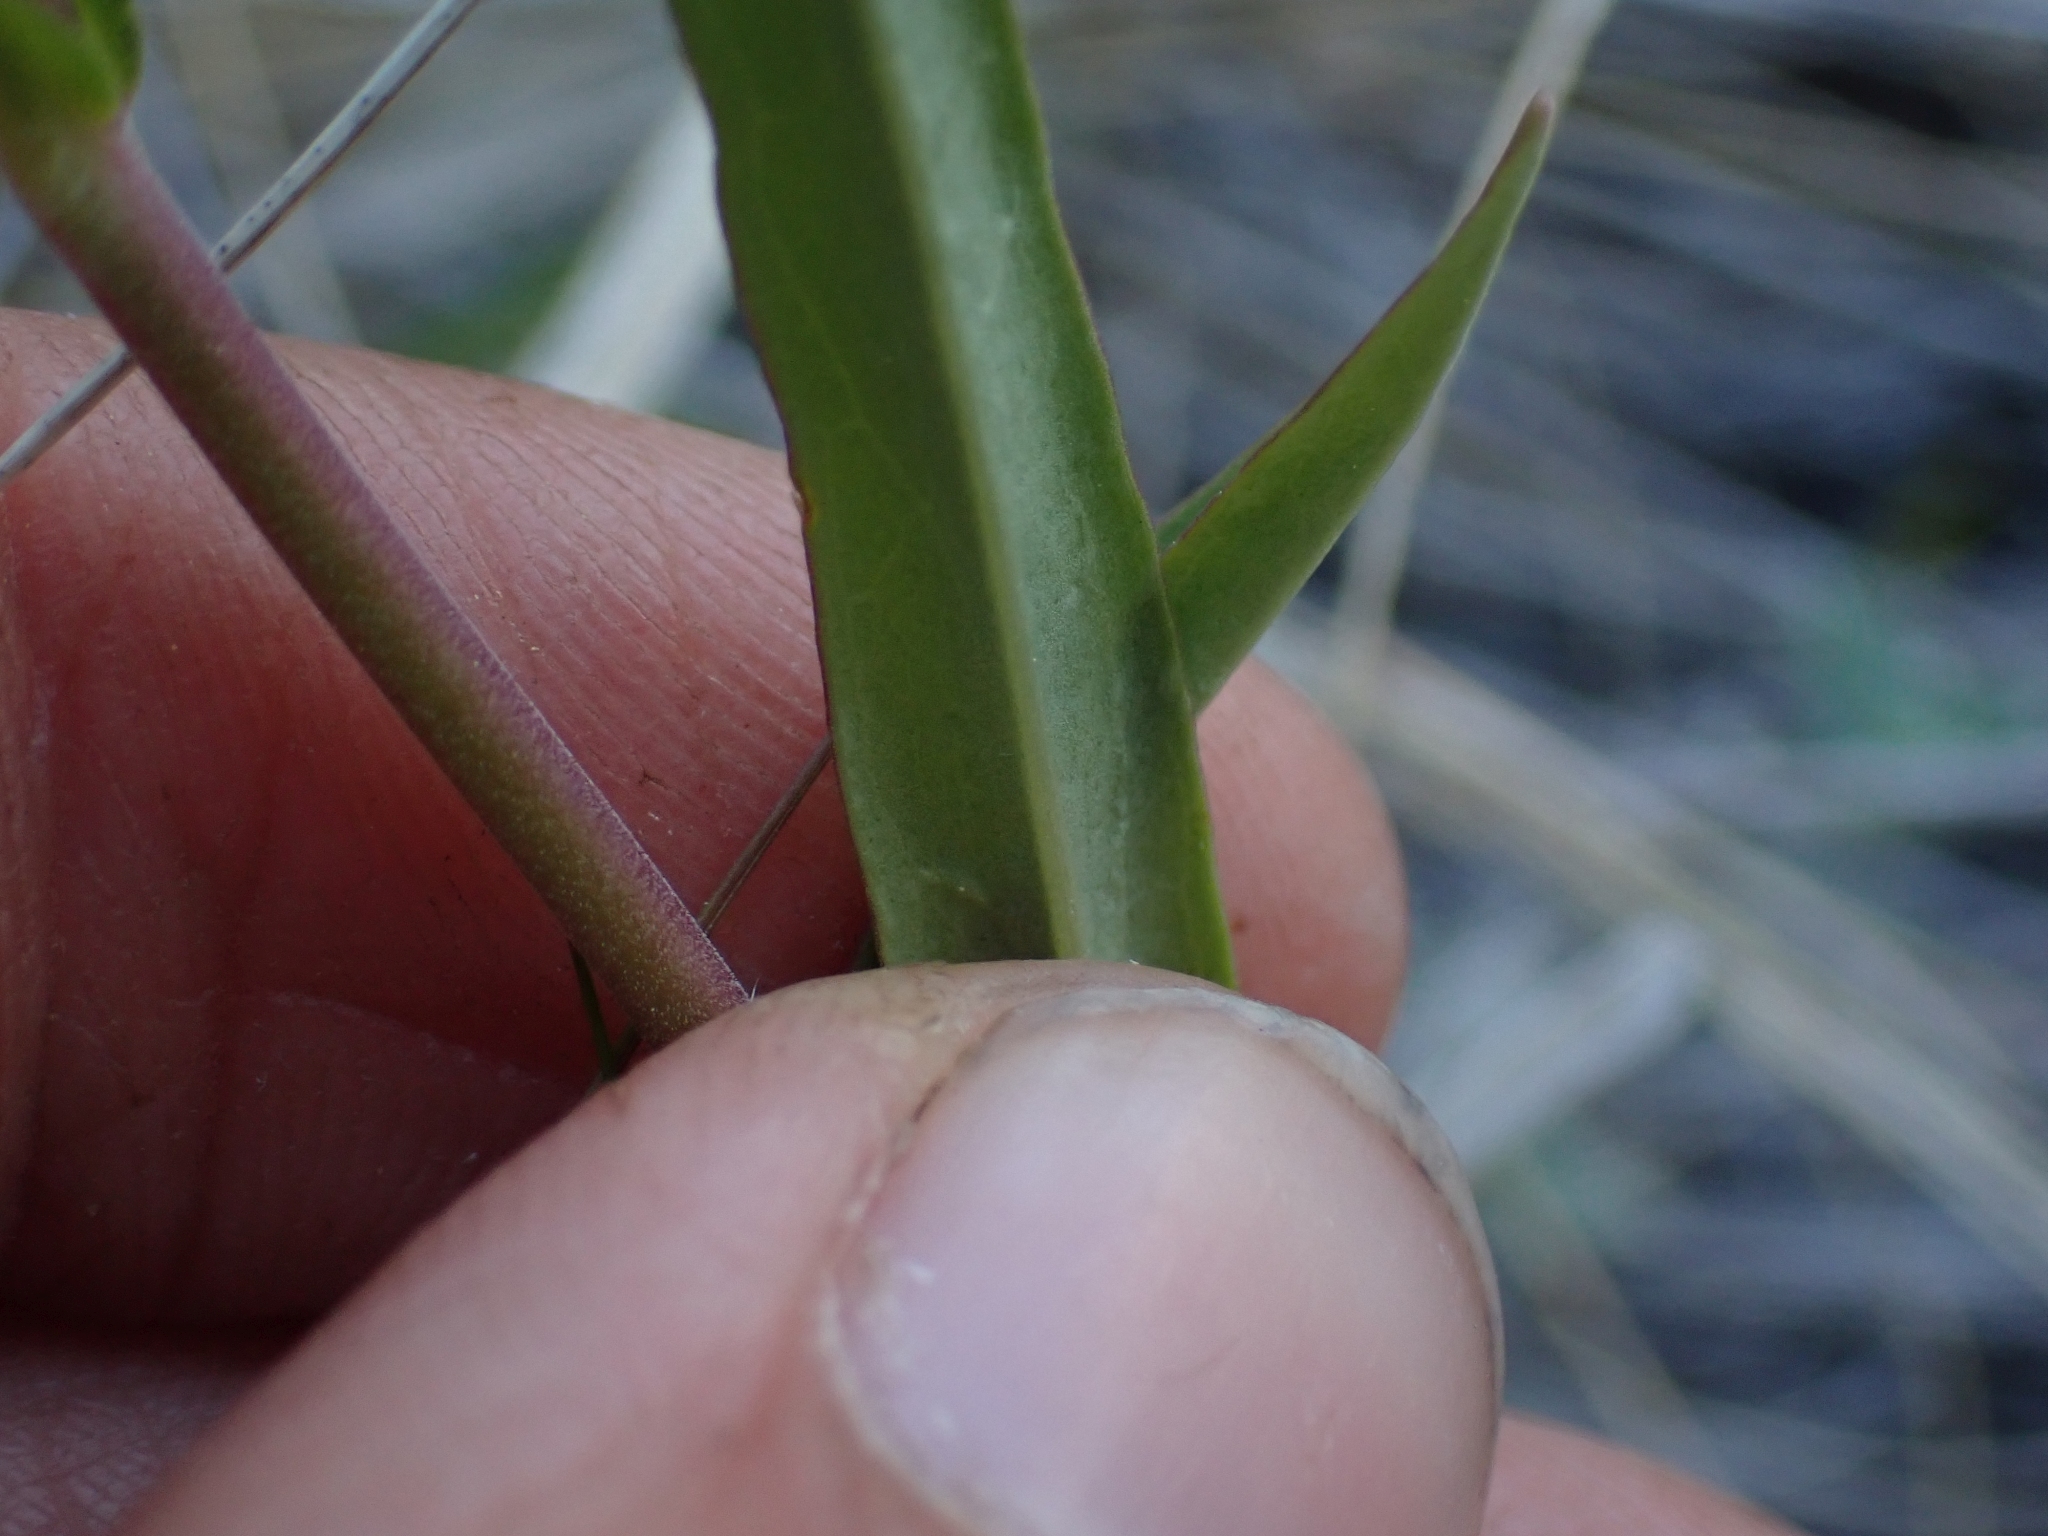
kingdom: Plantae
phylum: Tracheophyta
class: Magnoliopsida
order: Lamiales
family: Plantaginaceae
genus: Penstemon
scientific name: Penstemon confertus
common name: Lesser yellow beardtongue
